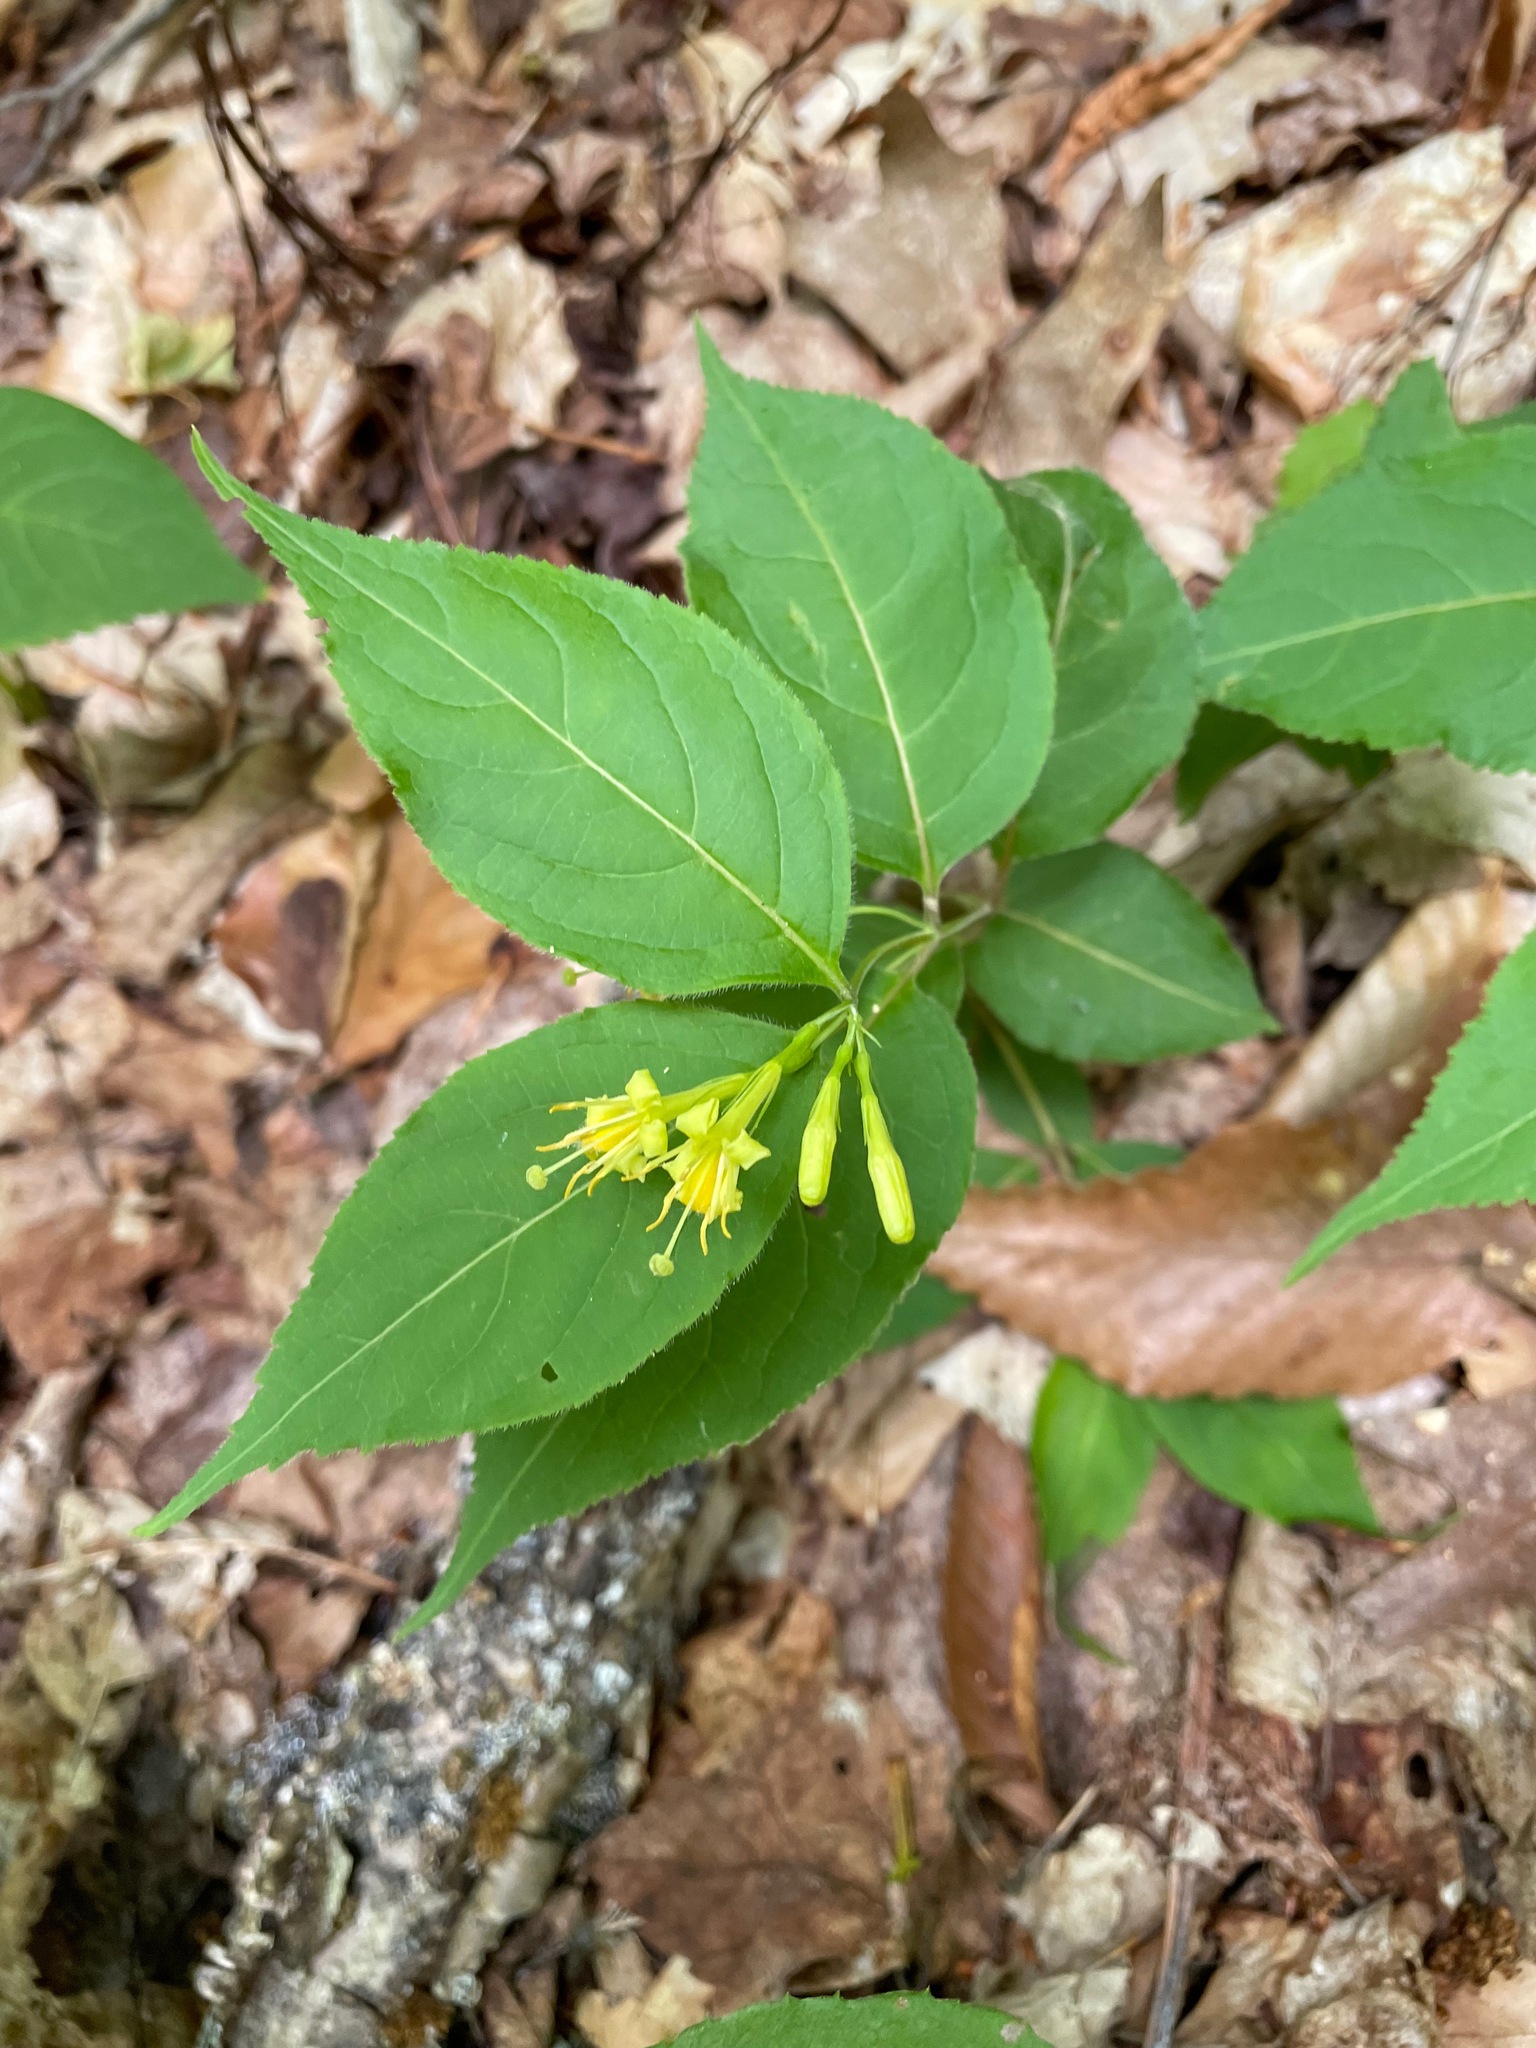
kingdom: Plantae
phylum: Tracheophyta
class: Magnoliopsida
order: Dipsacales
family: Caprifoliaceae
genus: Diervilla
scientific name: Diervilla lonicera
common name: Bush-honeysuckle
